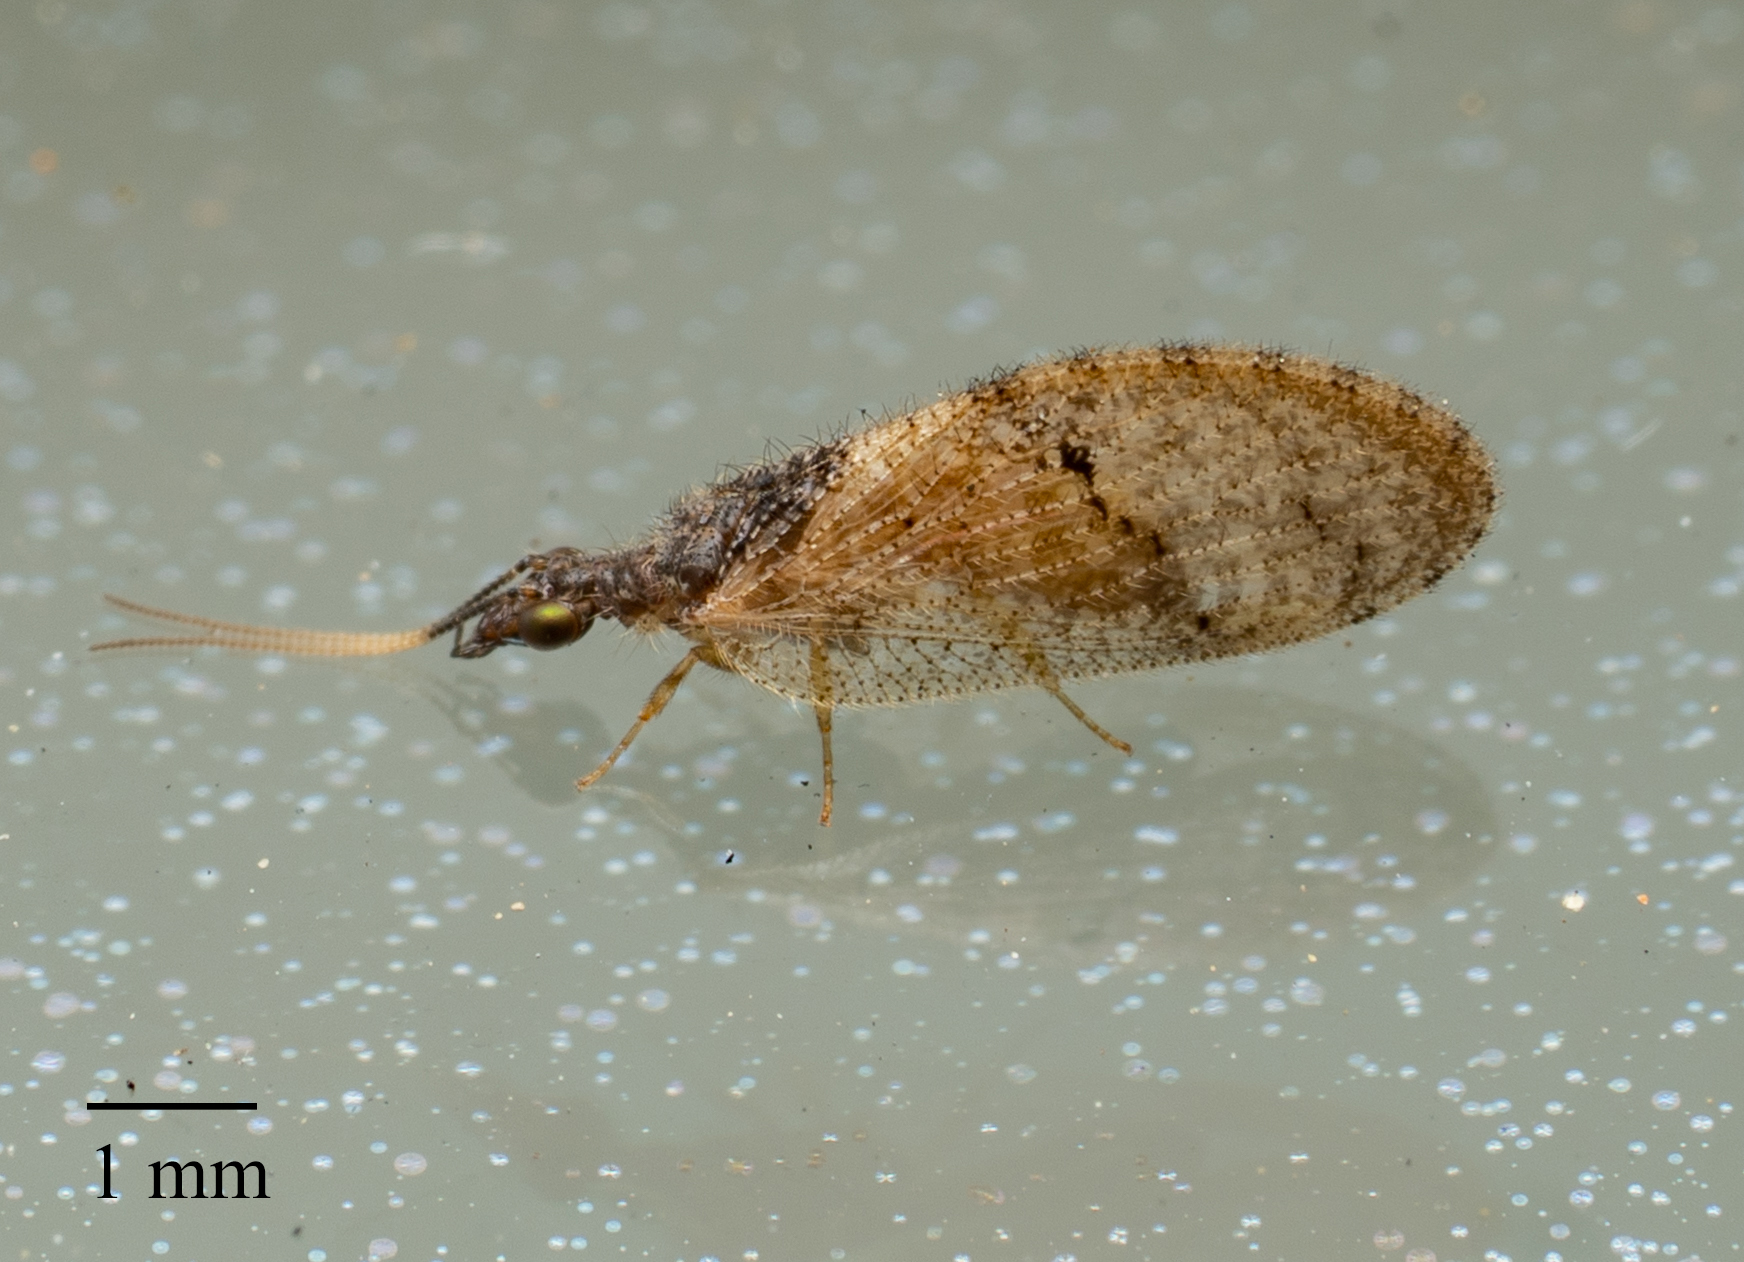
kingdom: Animalia
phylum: Arthropoda
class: Insecta
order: Neuroptera
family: Hemerobiidae
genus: Sympherobius
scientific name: Sympherobius barberi
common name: Brown lacewing
